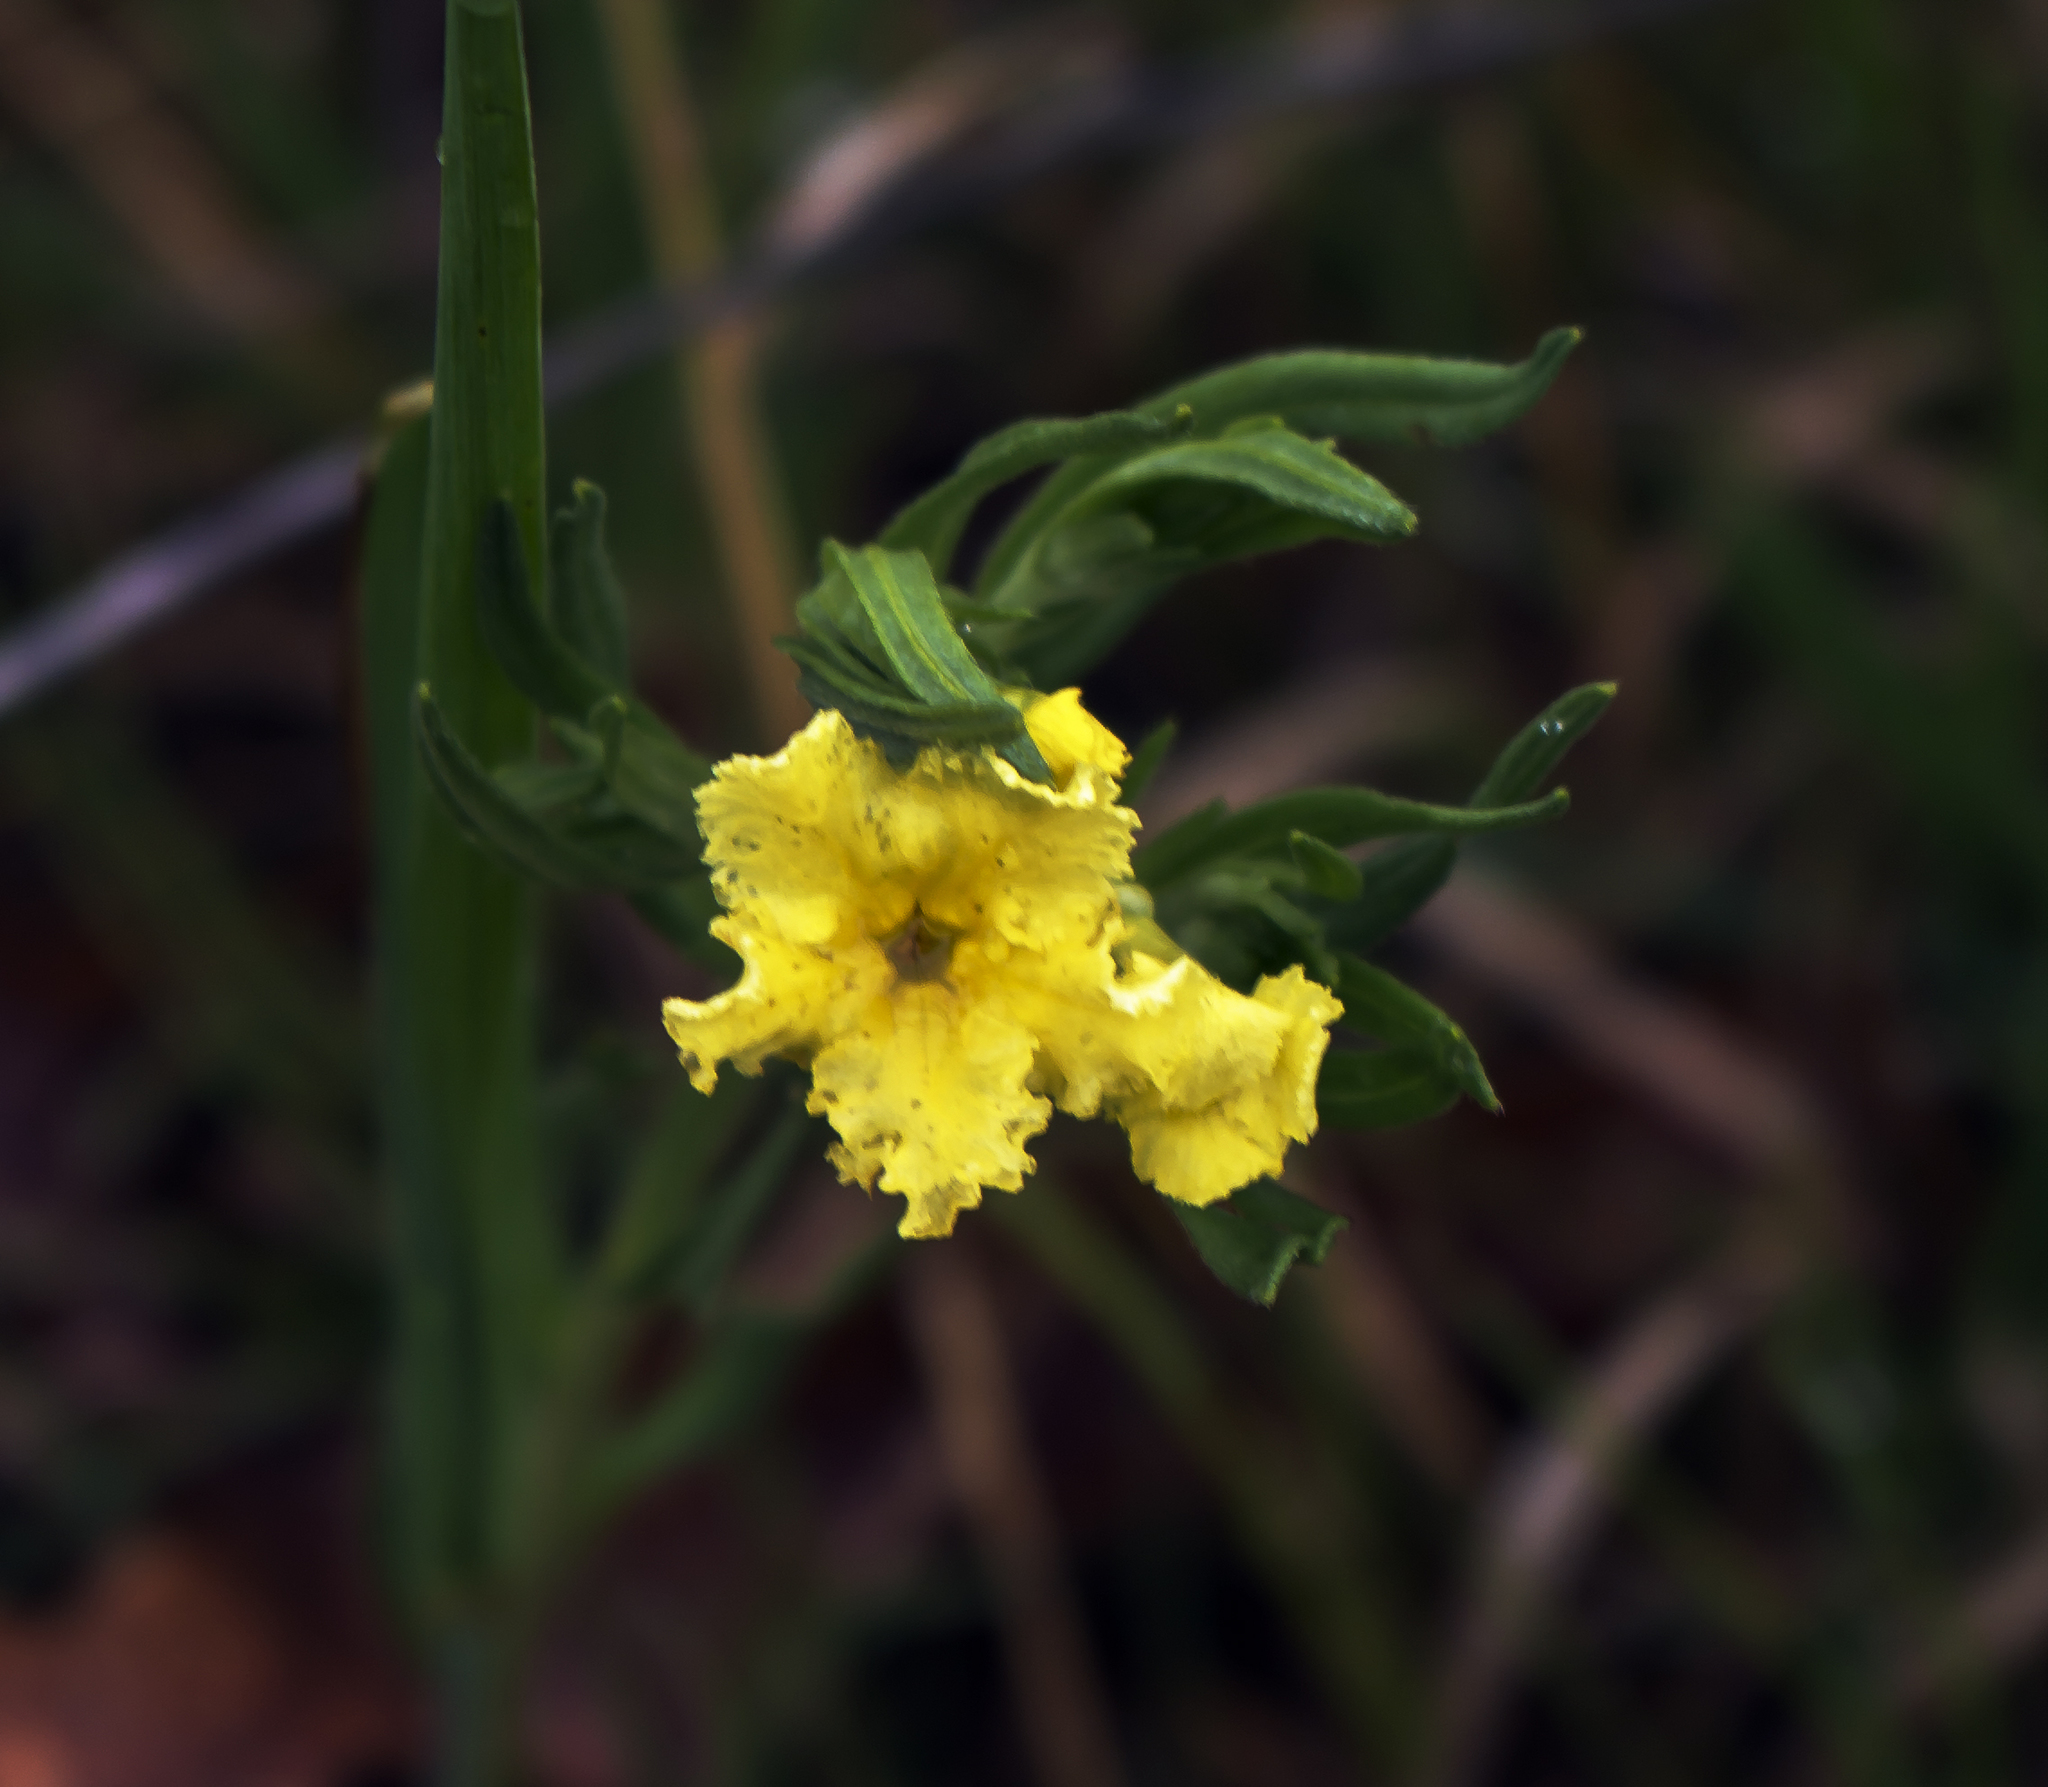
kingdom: Plantae
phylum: Tracheophyta
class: Magnoliopsida
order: Boraginales
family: Boraginaceae
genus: Lithospermum
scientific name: Lithospermum incisum
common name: Fringed gromwell
